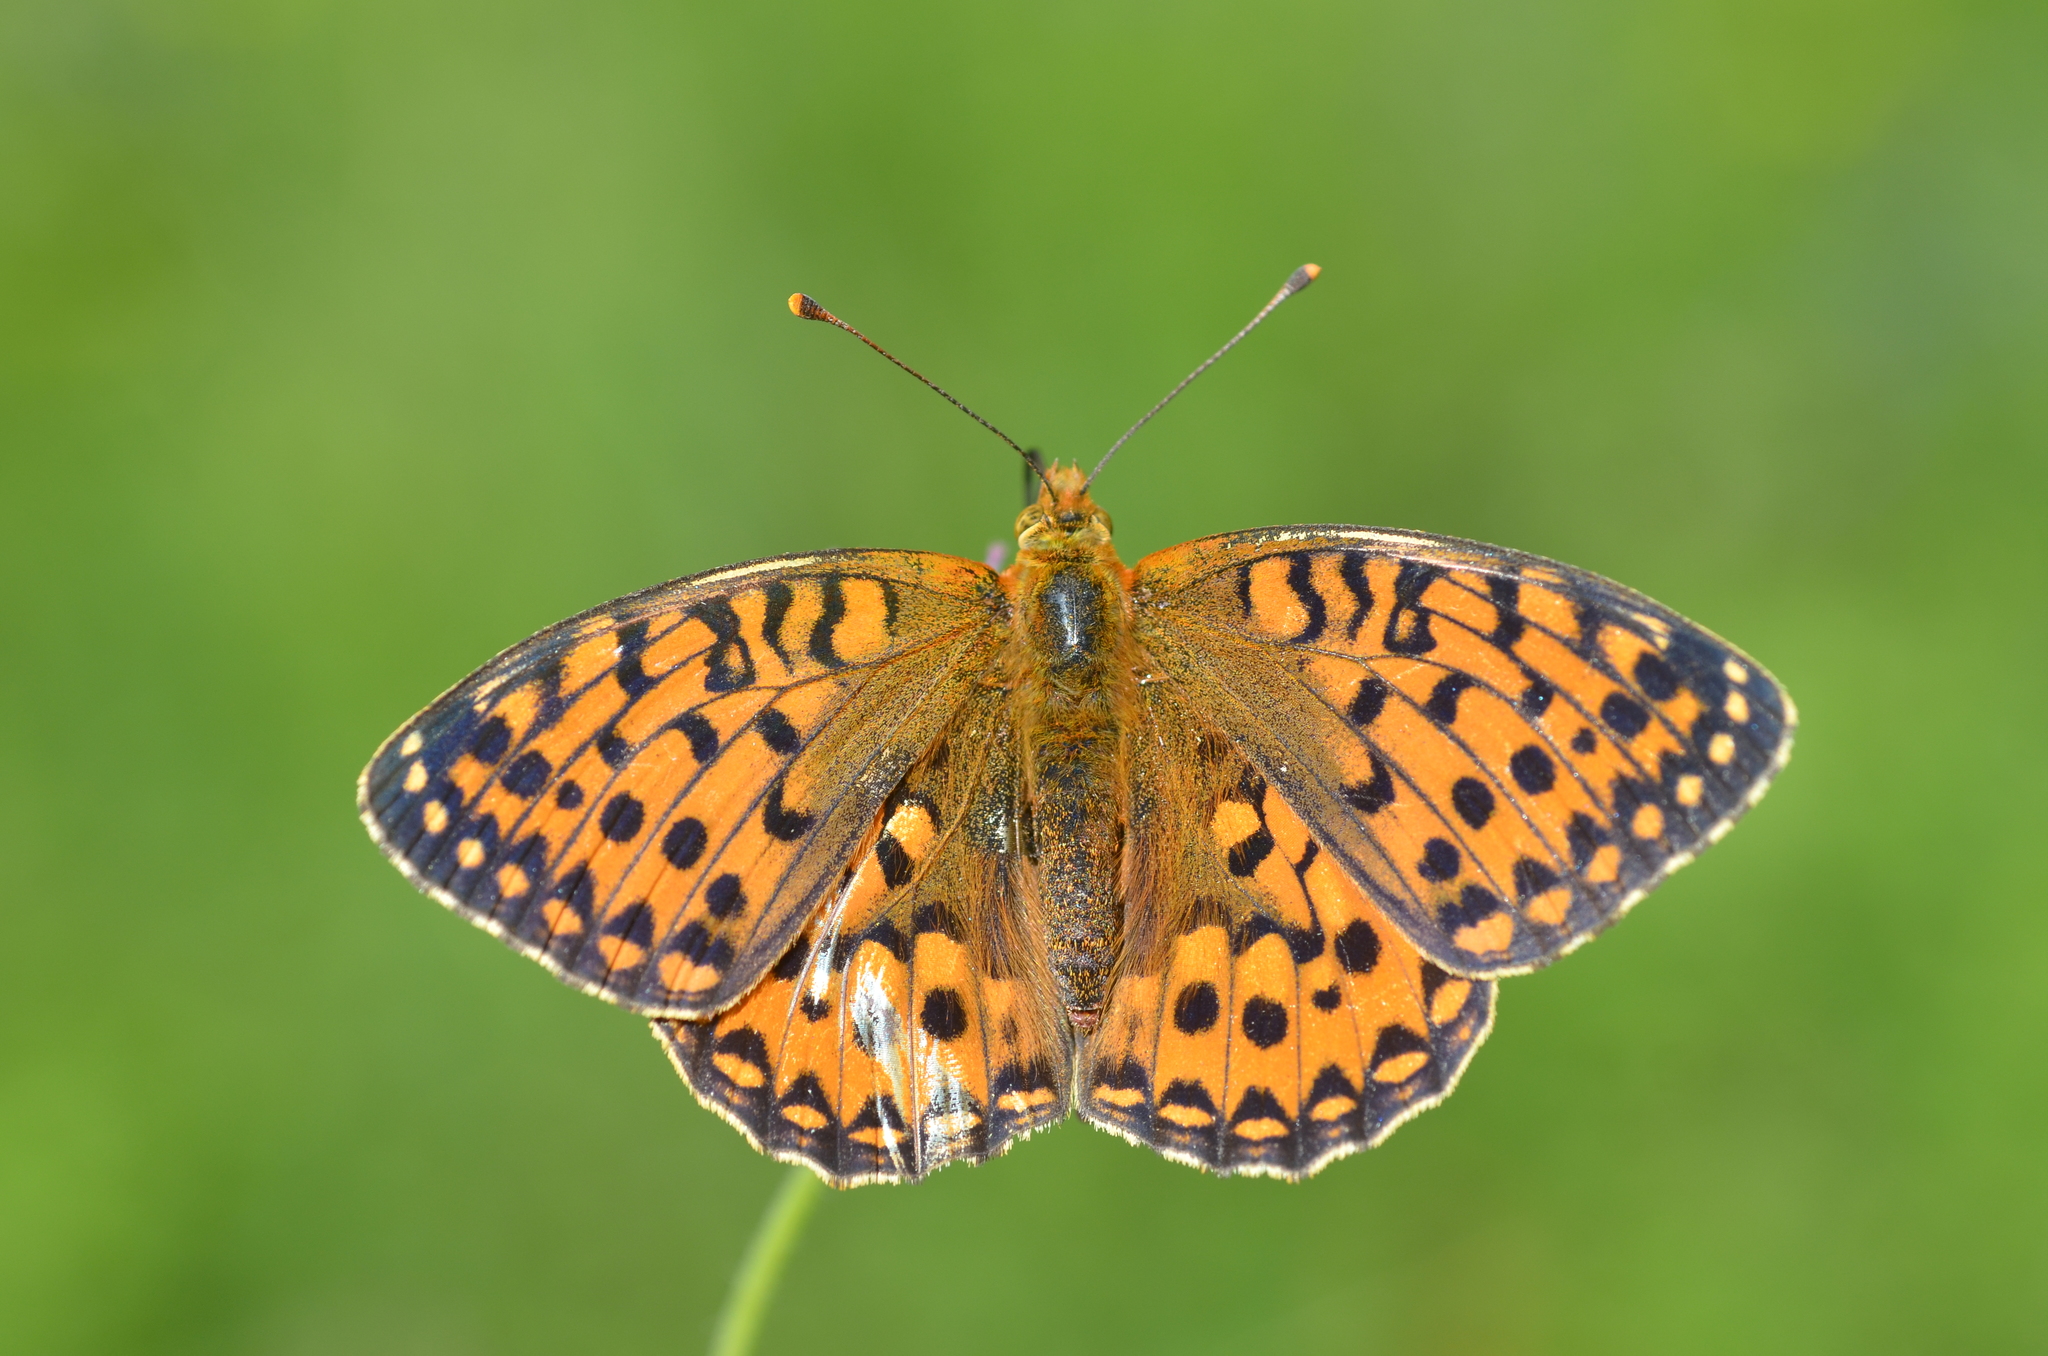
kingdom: Animalia
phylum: Arthropoda
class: Insecta
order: Lepidoptera
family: Nymphalidae
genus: Speyeria
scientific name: Speyeria aglaja
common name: Dark green fritillary
